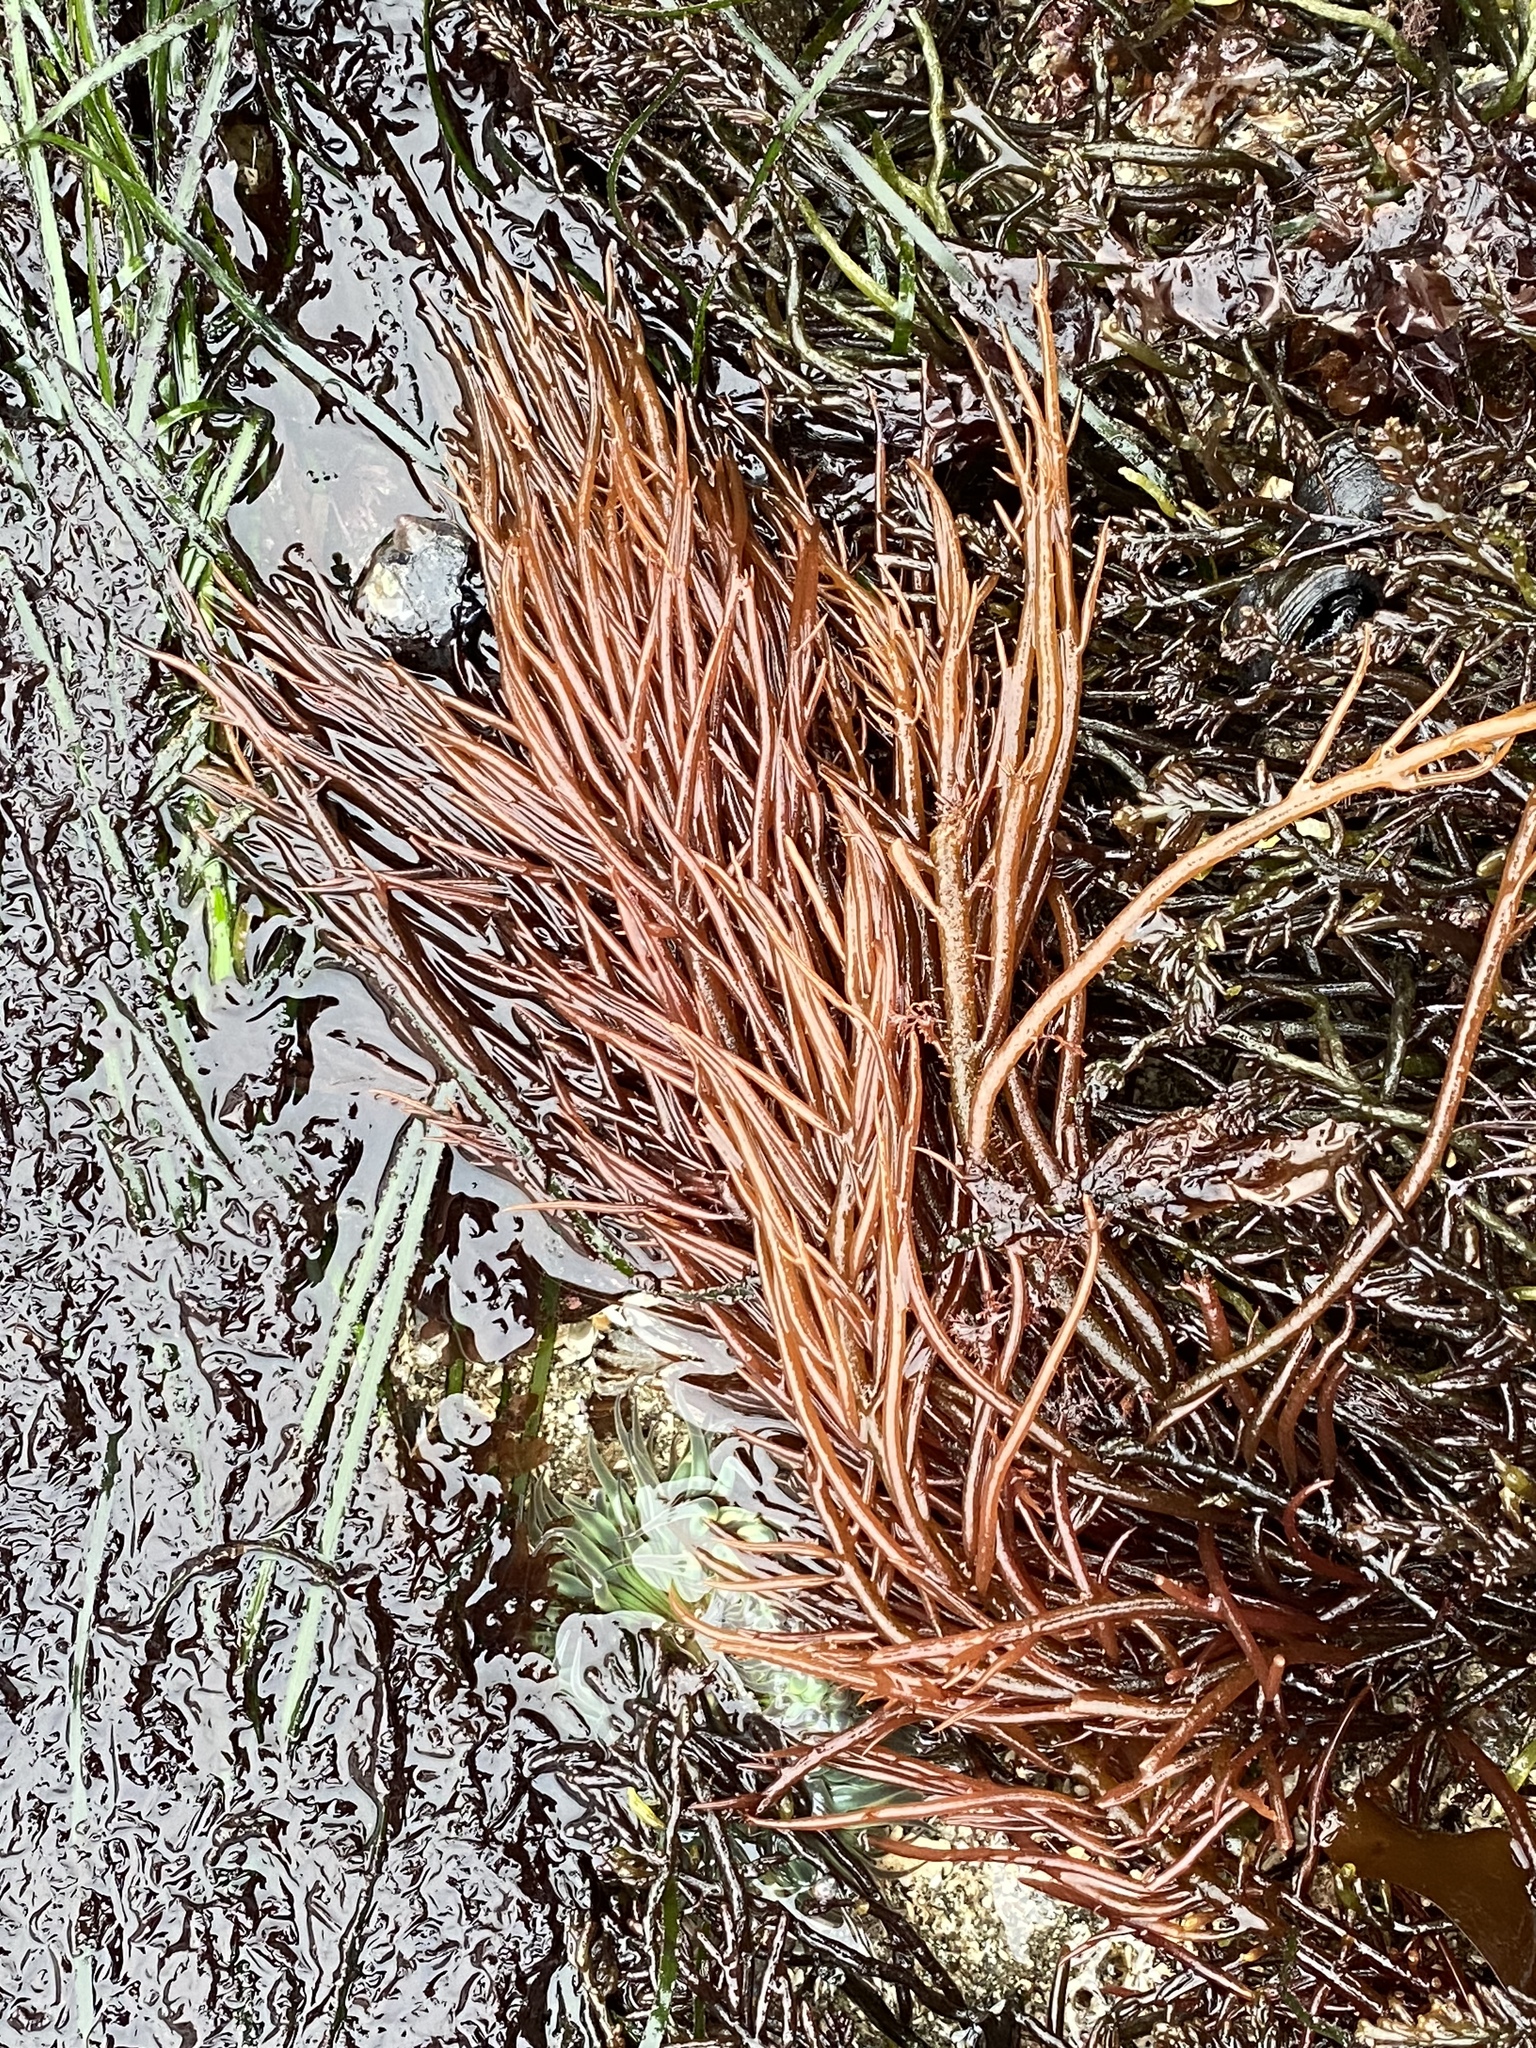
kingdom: Plantae
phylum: Rhodophyta
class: Florideophyceae
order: Gigartinales
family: Solieriaceae
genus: Sarcodiotheca
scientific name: Sarcodiotheca gaudichaudii
